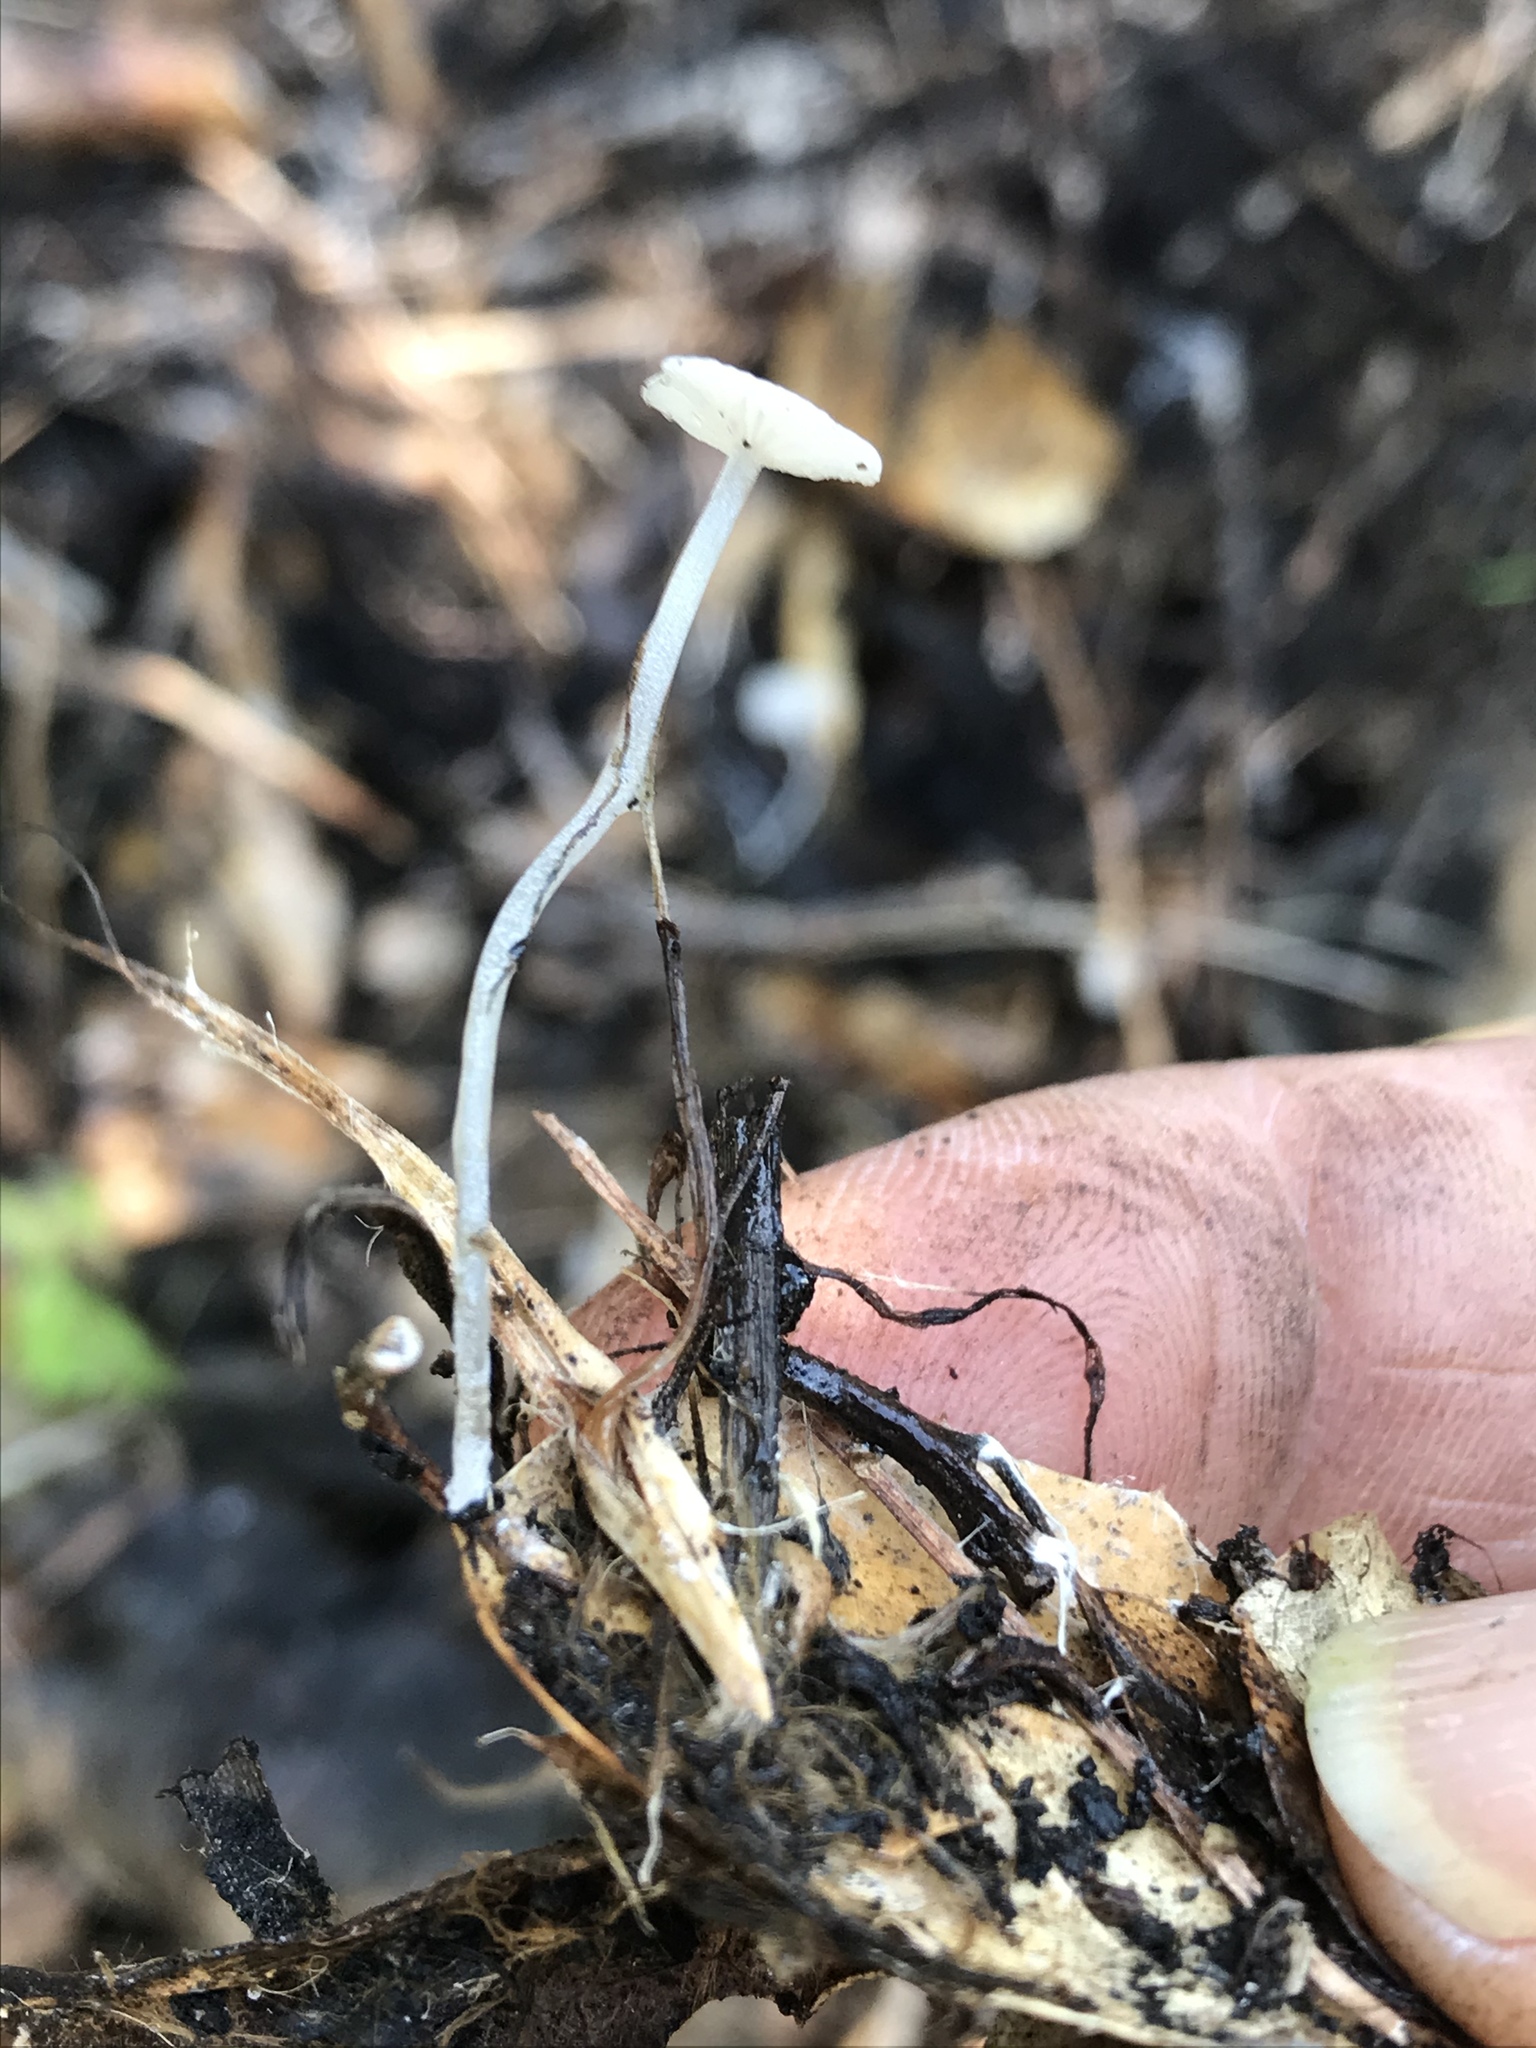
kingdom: Fungi
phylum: Basidiomycota
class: Agaricomycetes
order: Agaricales
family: Mycenaceae
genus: Hemimycena
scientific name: Hemimycena
